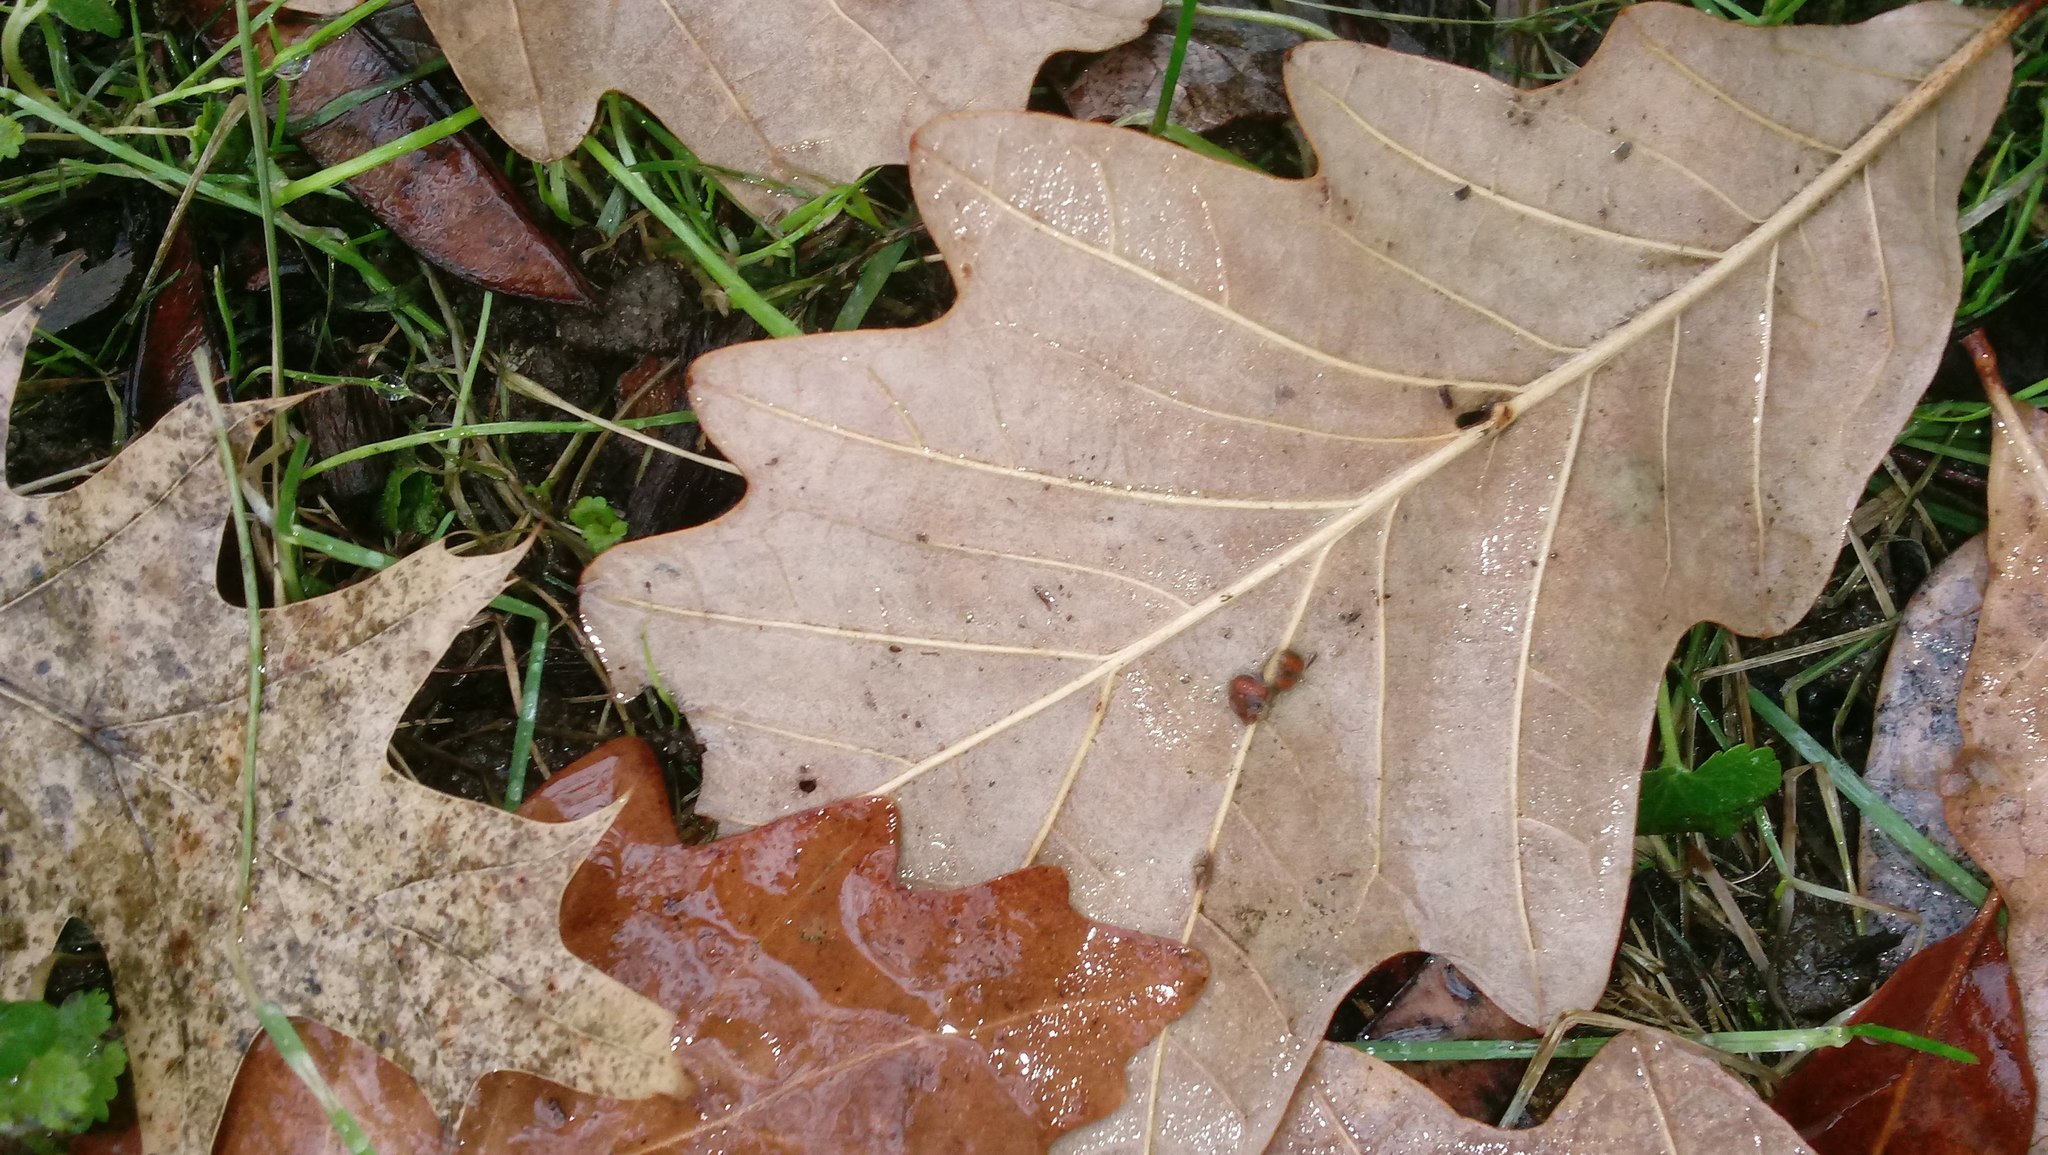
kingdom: Animalia
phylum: Arthropoda
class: Insecta
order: Hymenoptera
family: Cynipidae
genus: Andricus
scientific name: Andricus Druon ignotum
